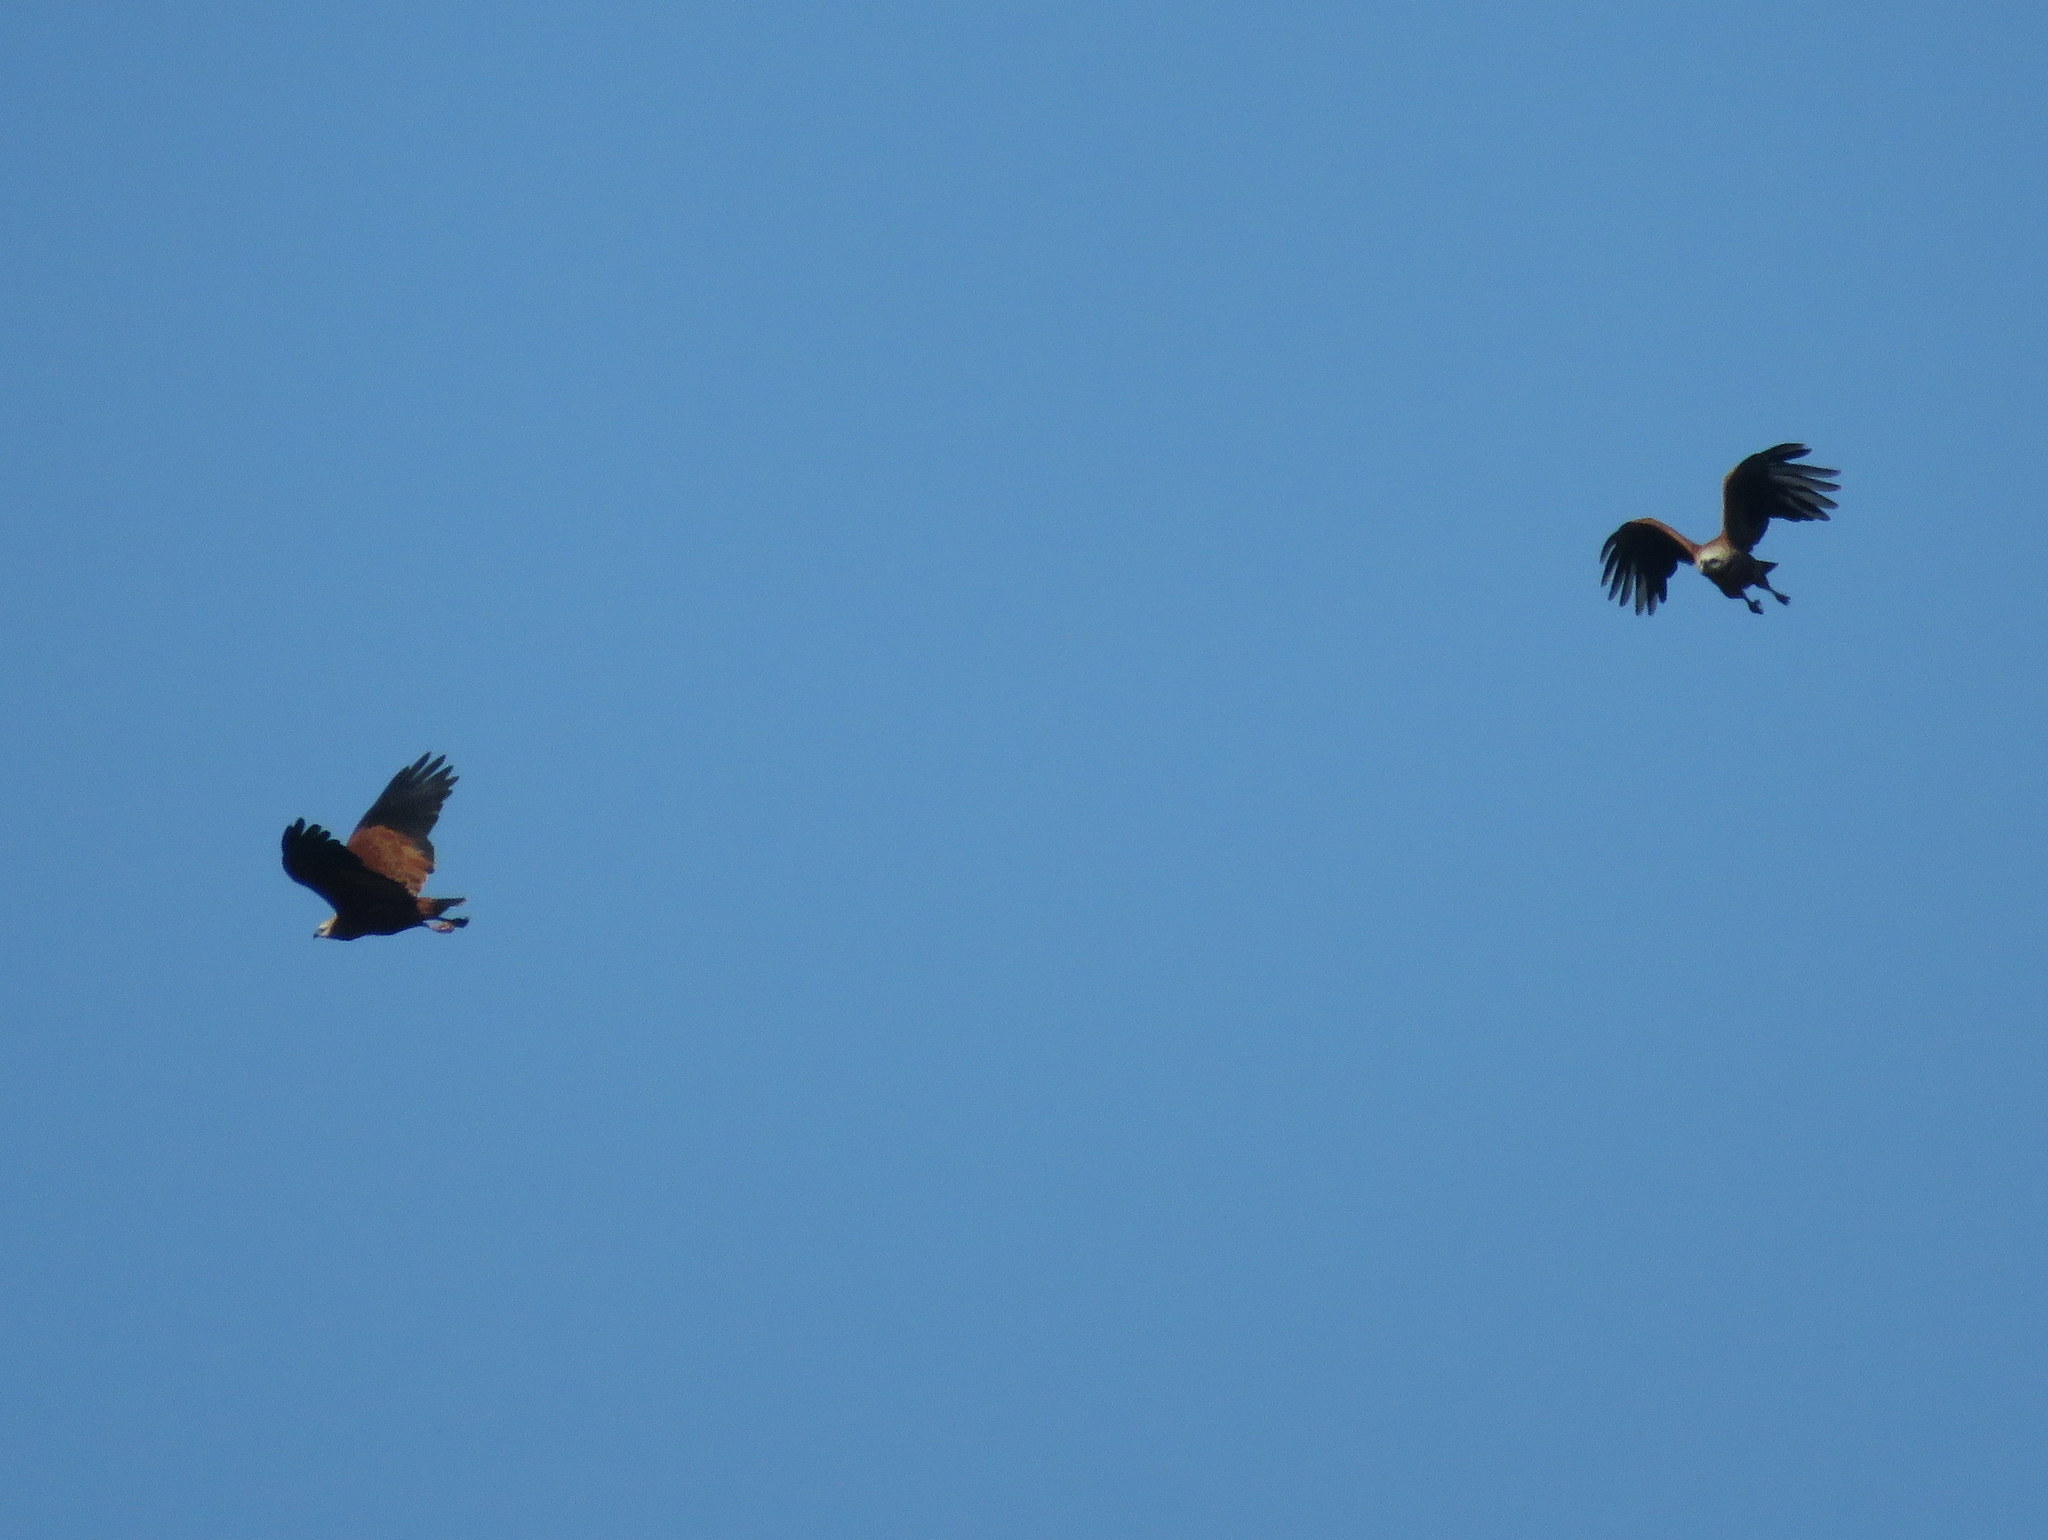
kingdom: Animalia
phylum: Chordata
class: Aves
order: Accipitriformes
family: Accipitridae
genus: Busarellus
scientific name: Busarellus nigricollis
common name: Black-collared hawk
